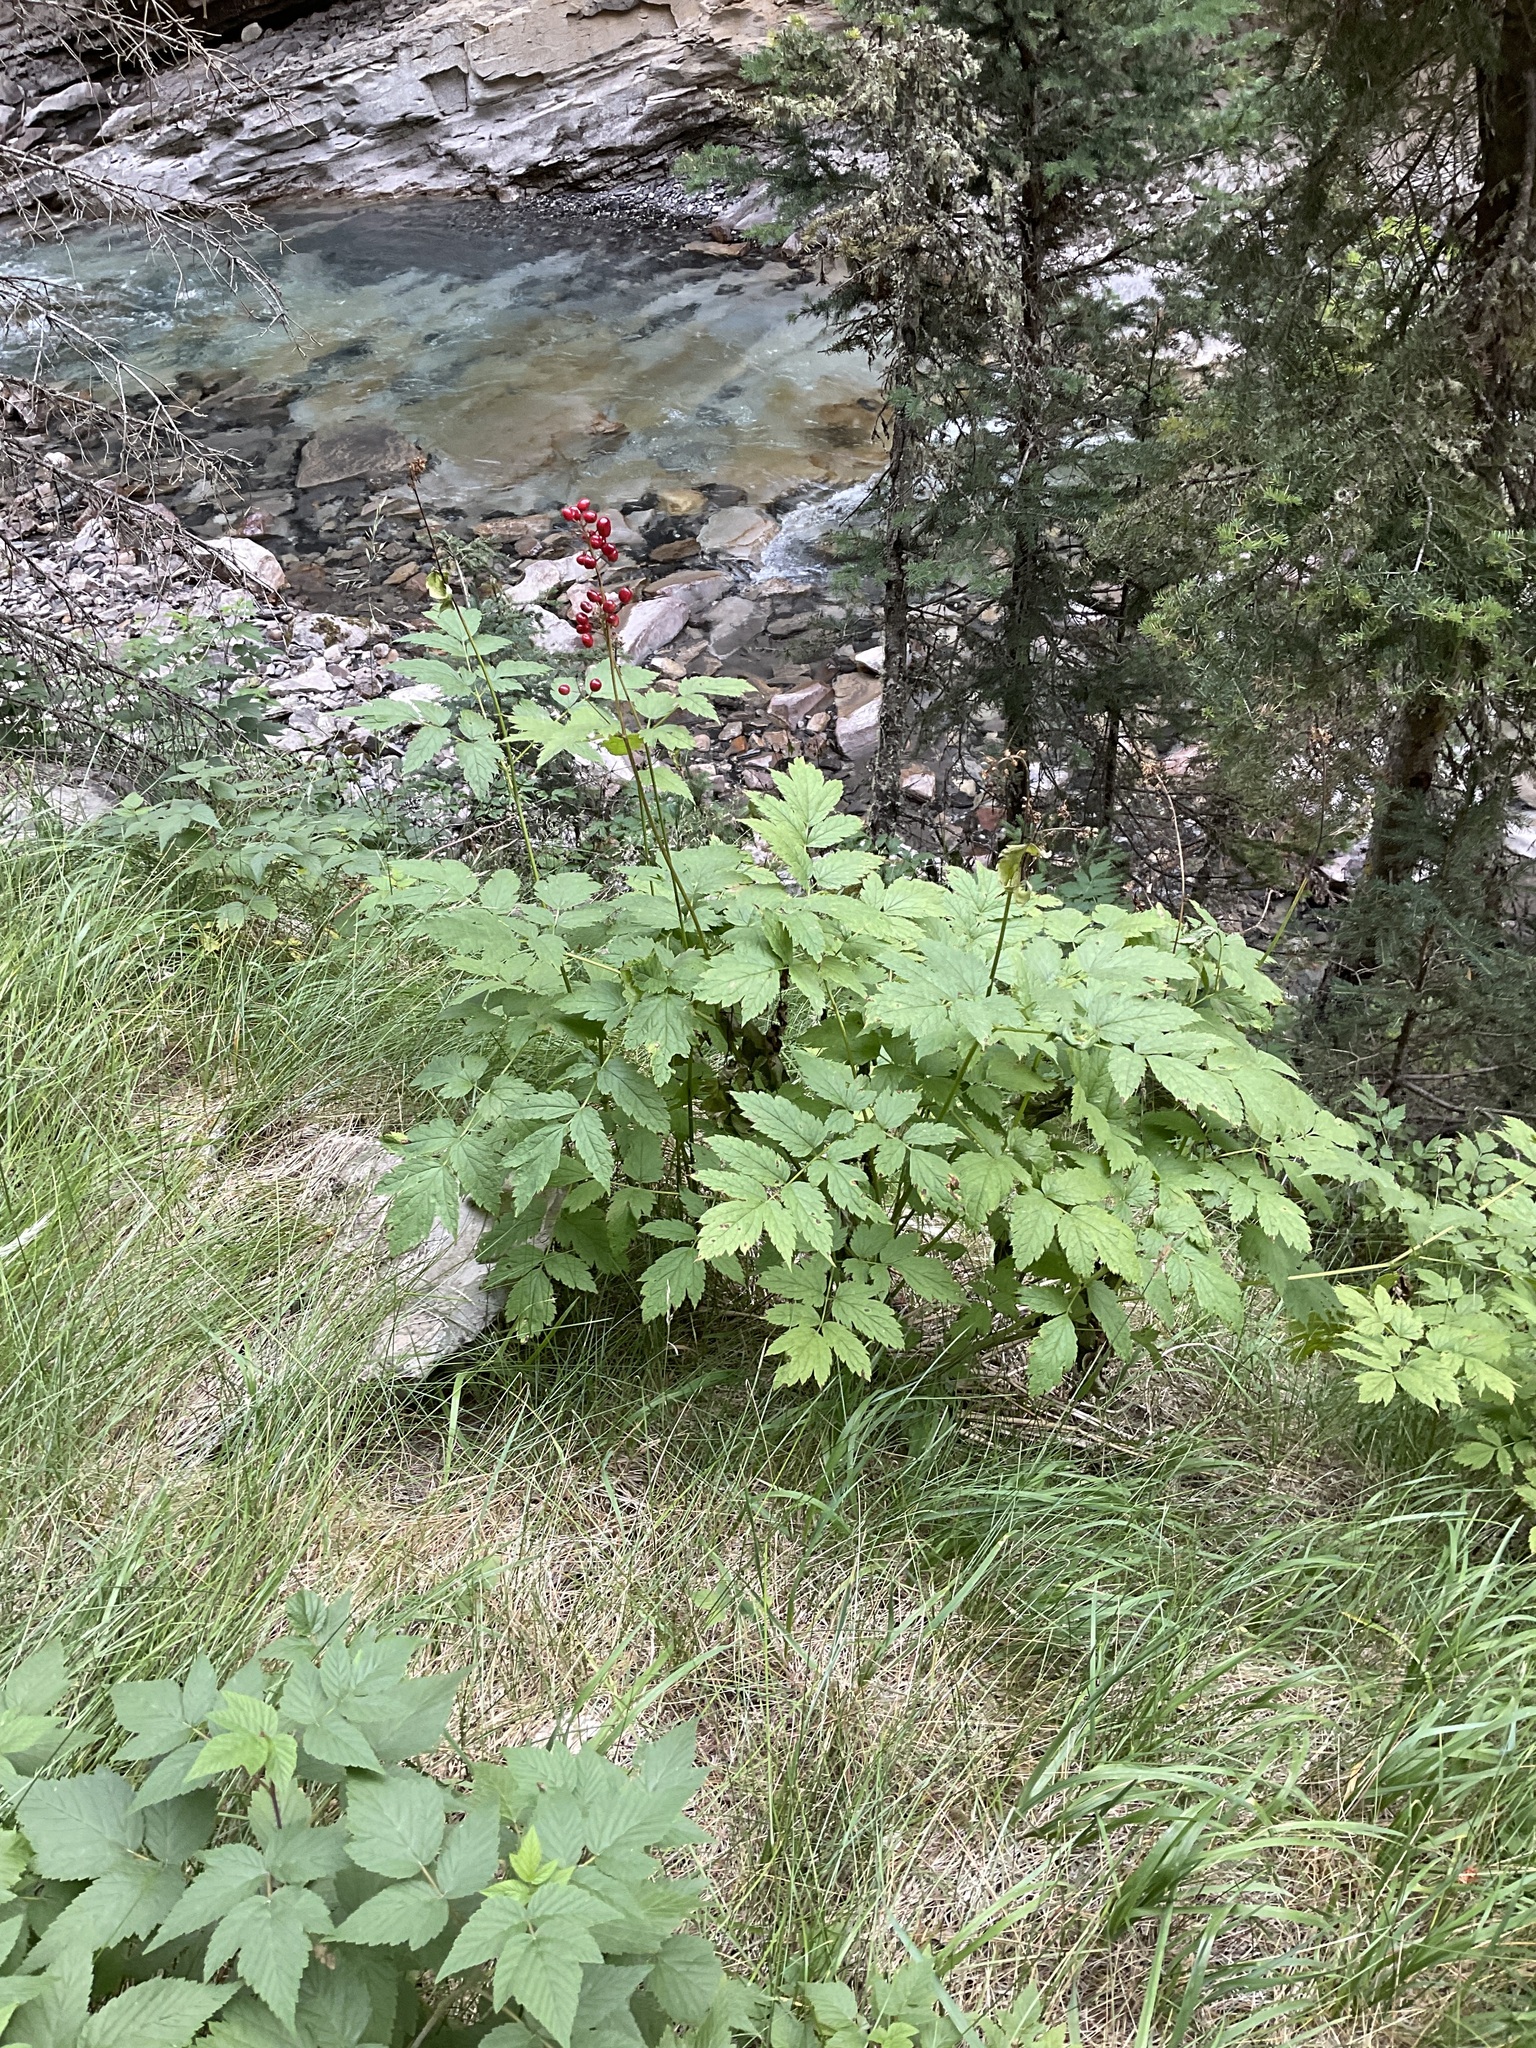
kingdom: Plantae
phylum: Tracheophyta
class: Magnoliopsida
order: Ranunculales
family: Ranunculaceae
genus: Actaea
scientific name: Actaea rubra
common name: Red baneberry
